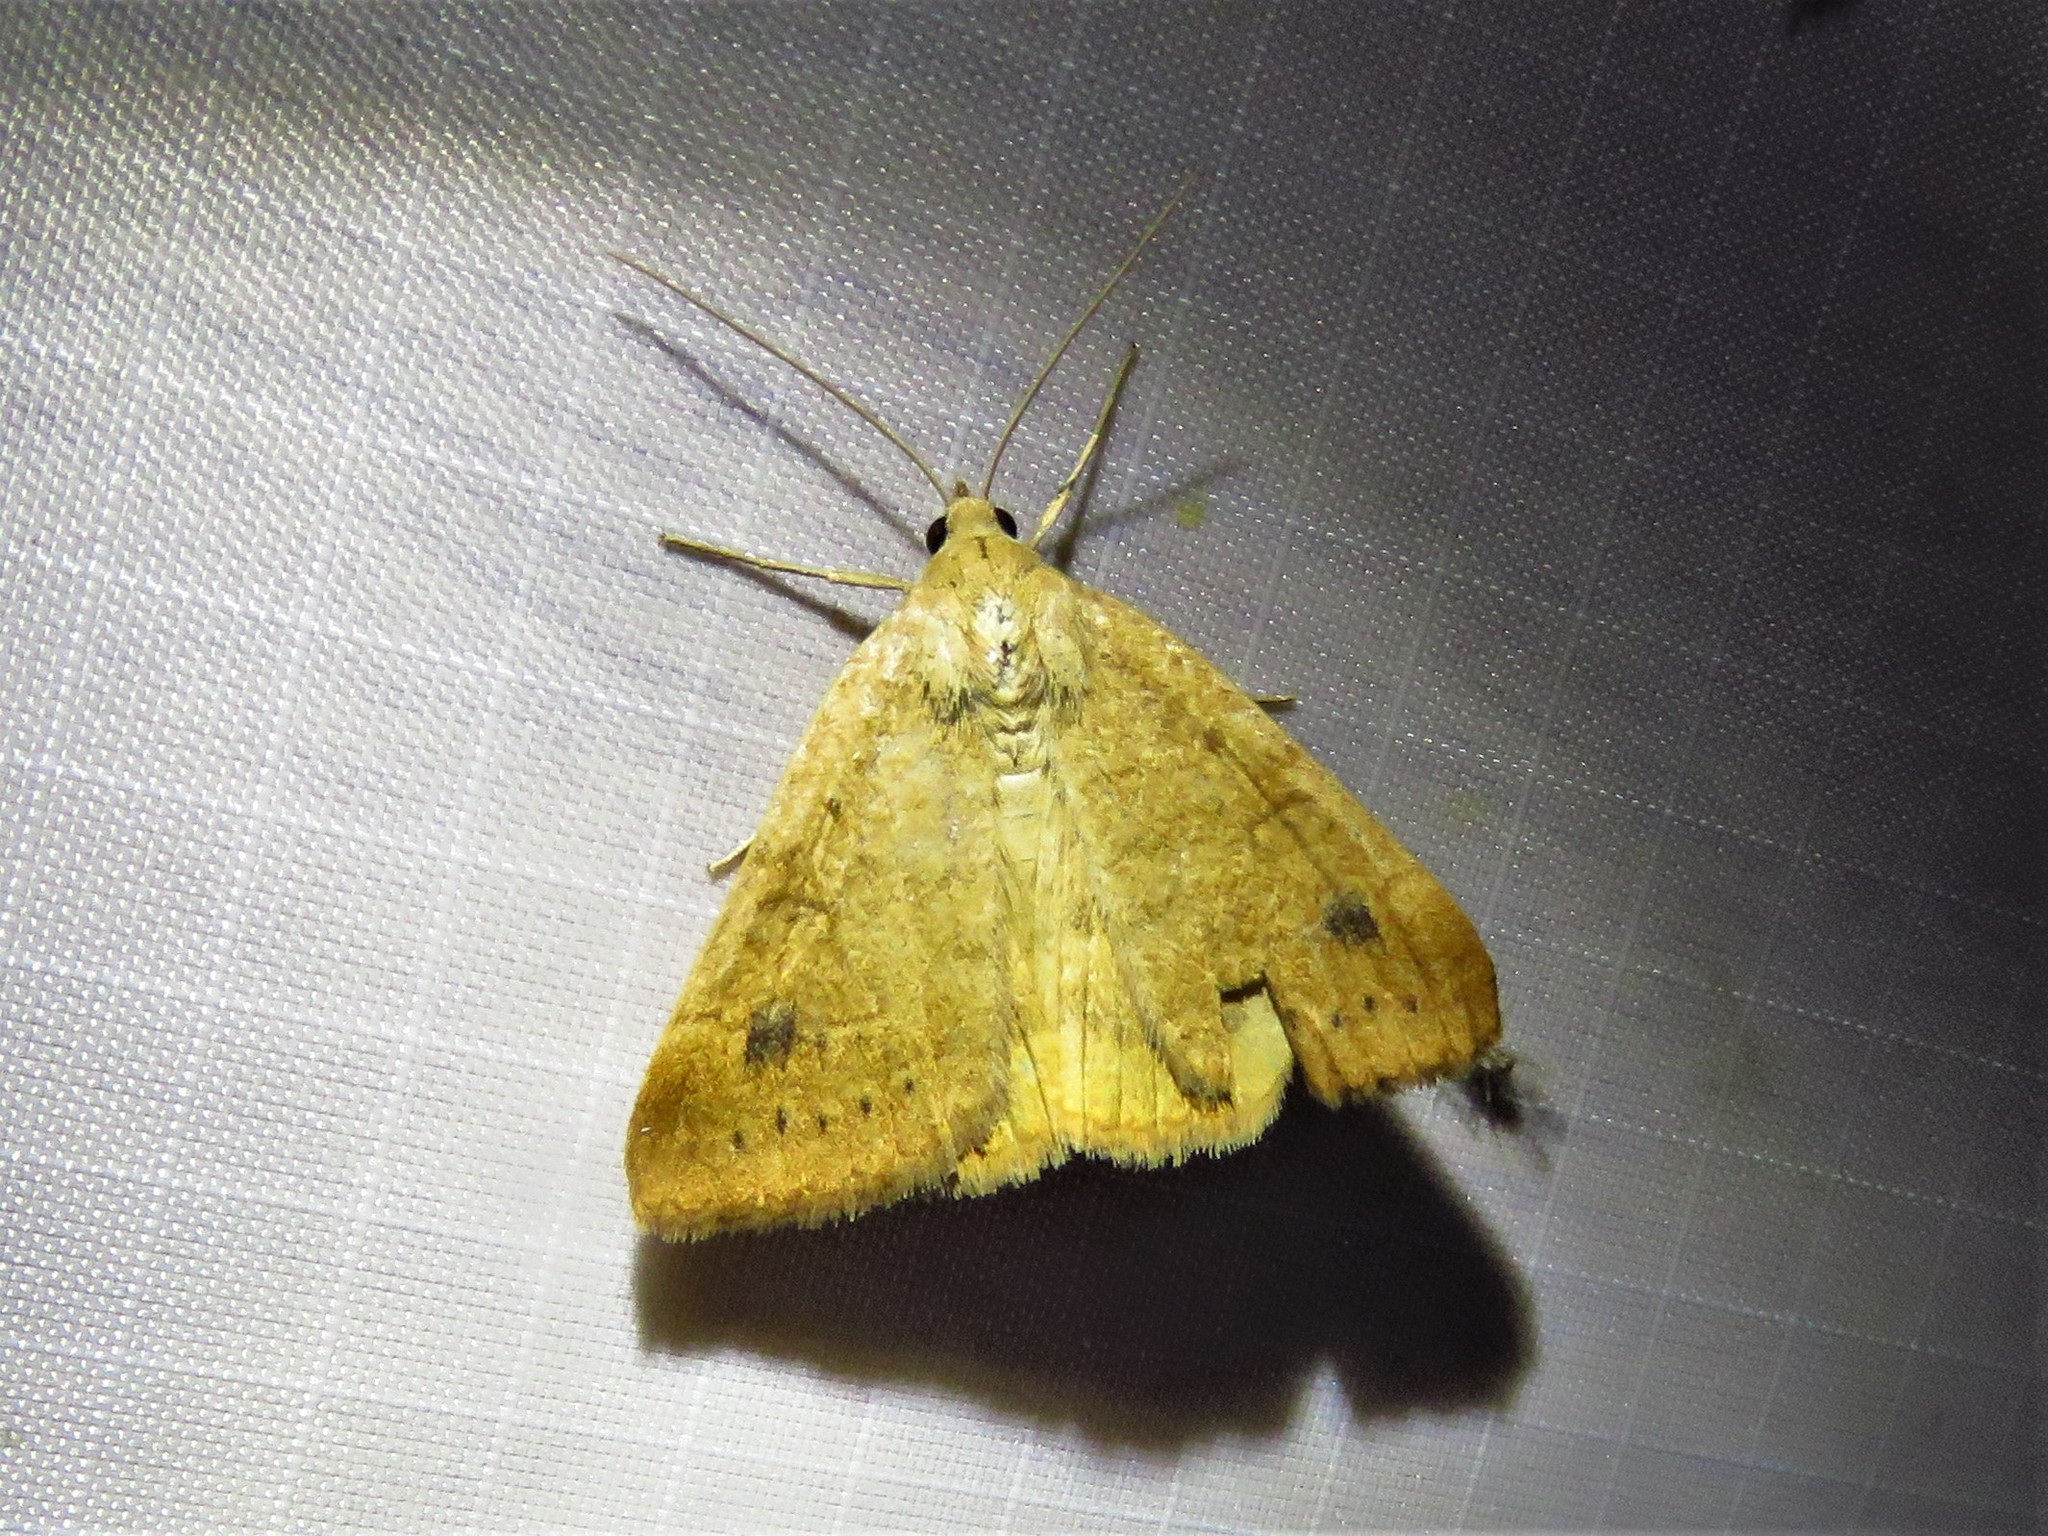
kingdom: Animalia
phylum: Arthropoda
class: Insecta
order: Lepidoptera
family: Erebidae
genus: Caenurgia
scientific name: Caenurgia chloropha
